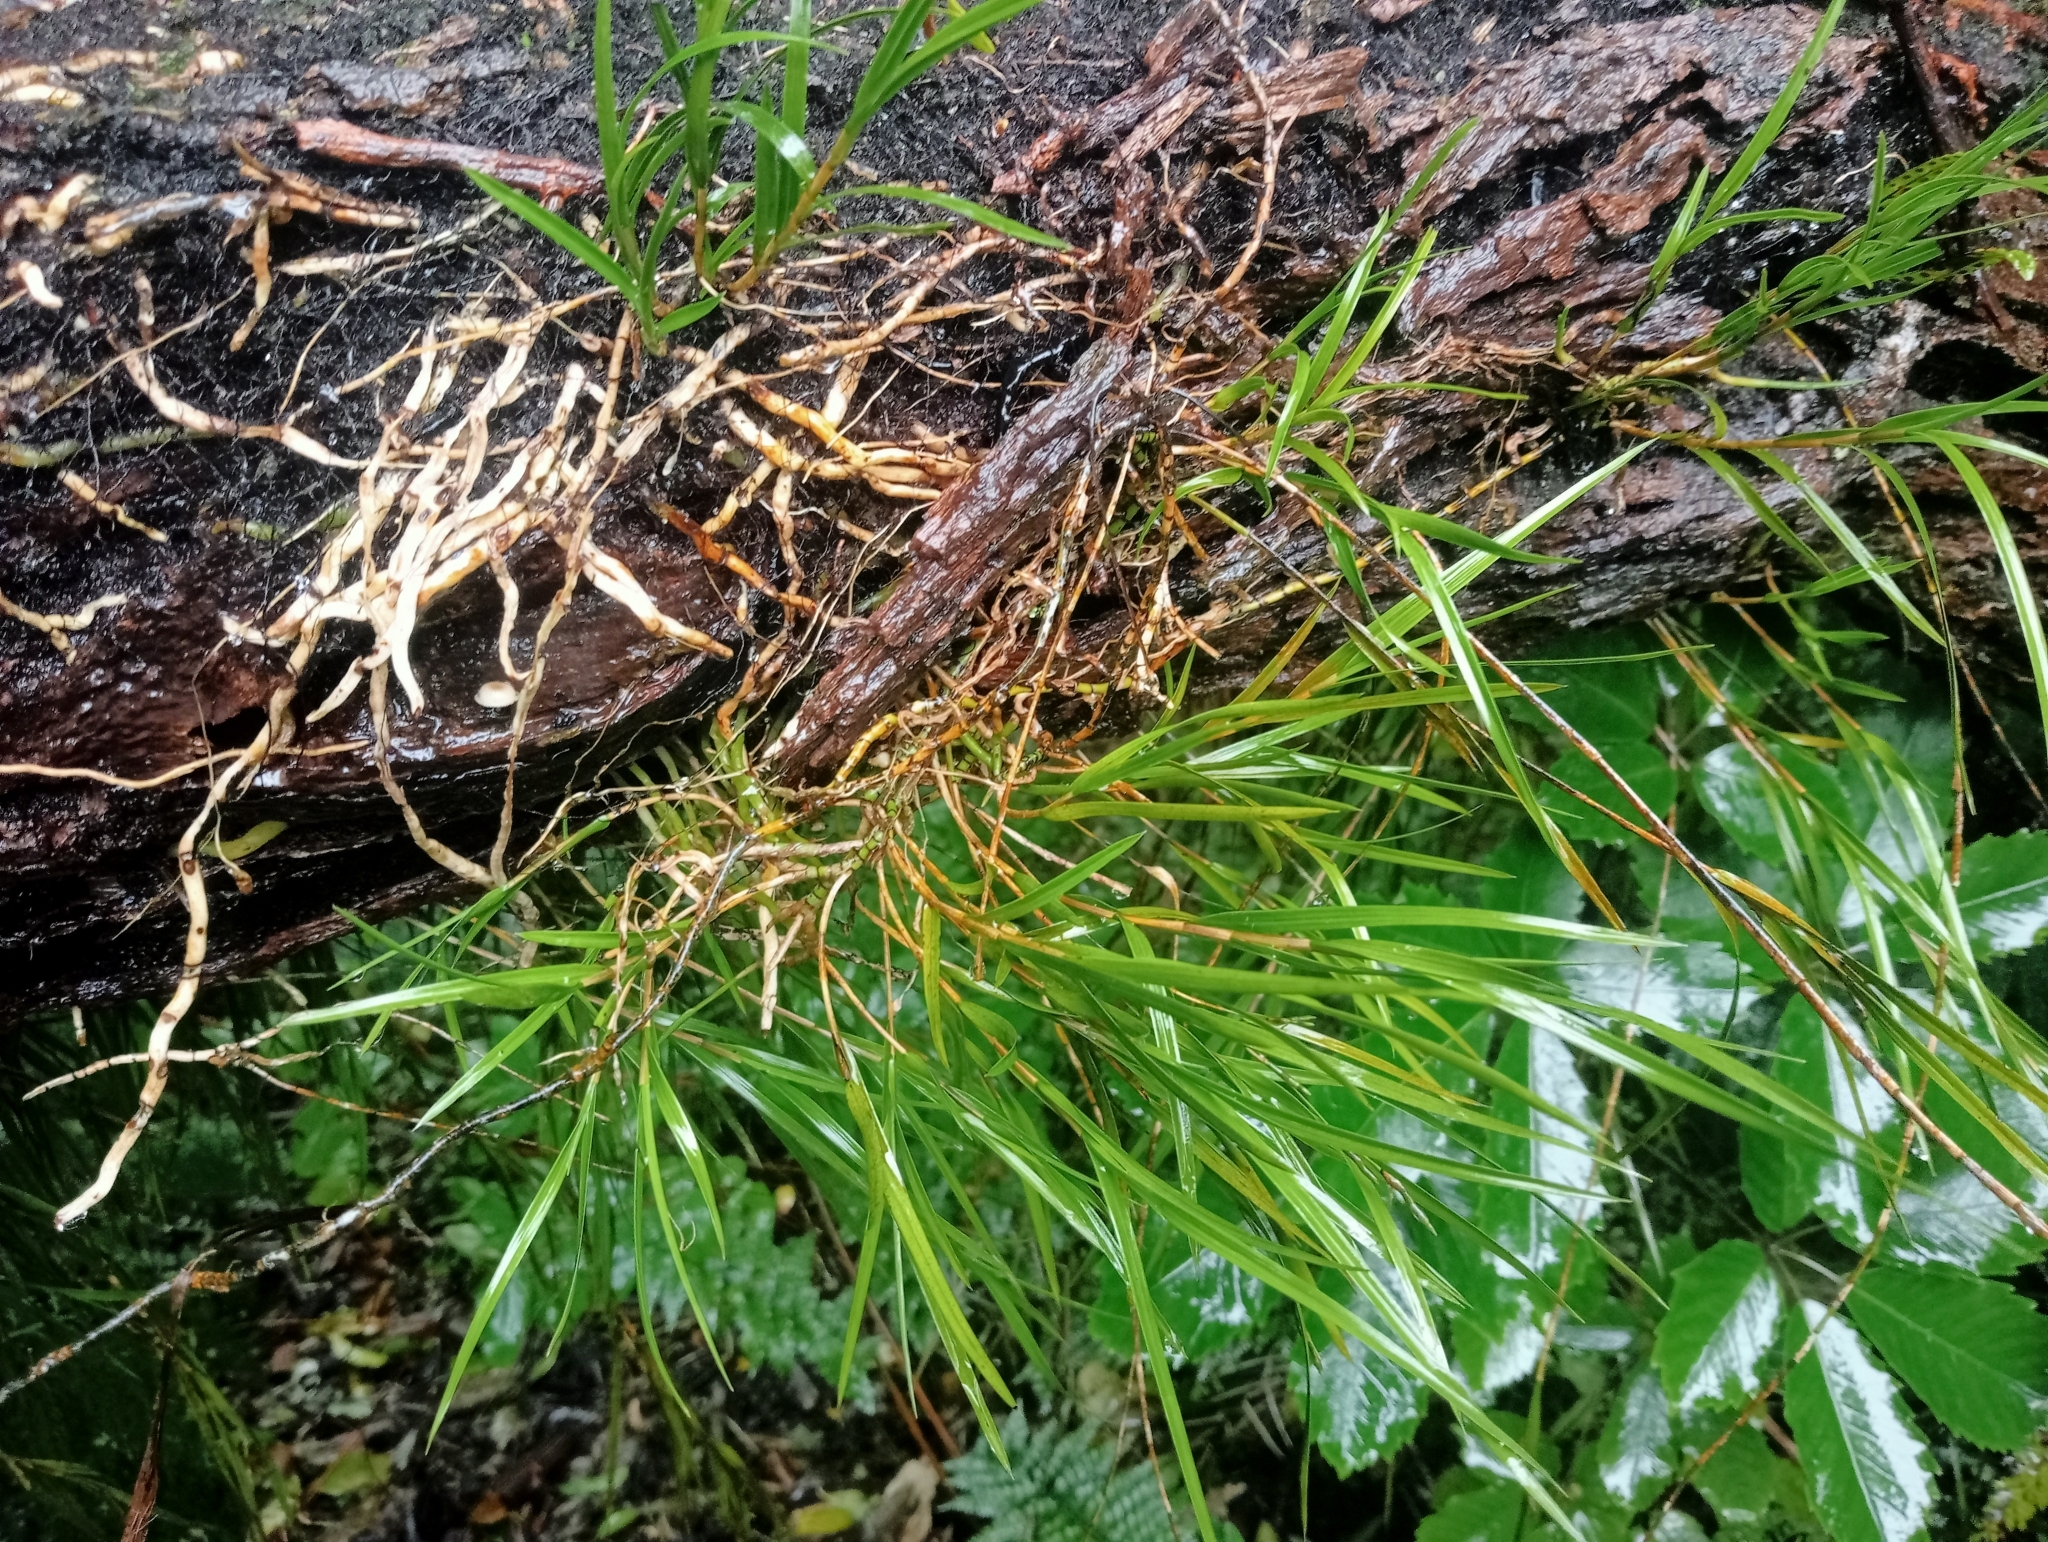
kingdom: Plantae
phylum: Tracheophyta
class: Liliopsida
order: Asparagales
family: Orchidaceae
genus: Earina
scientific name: Earina mucronata
